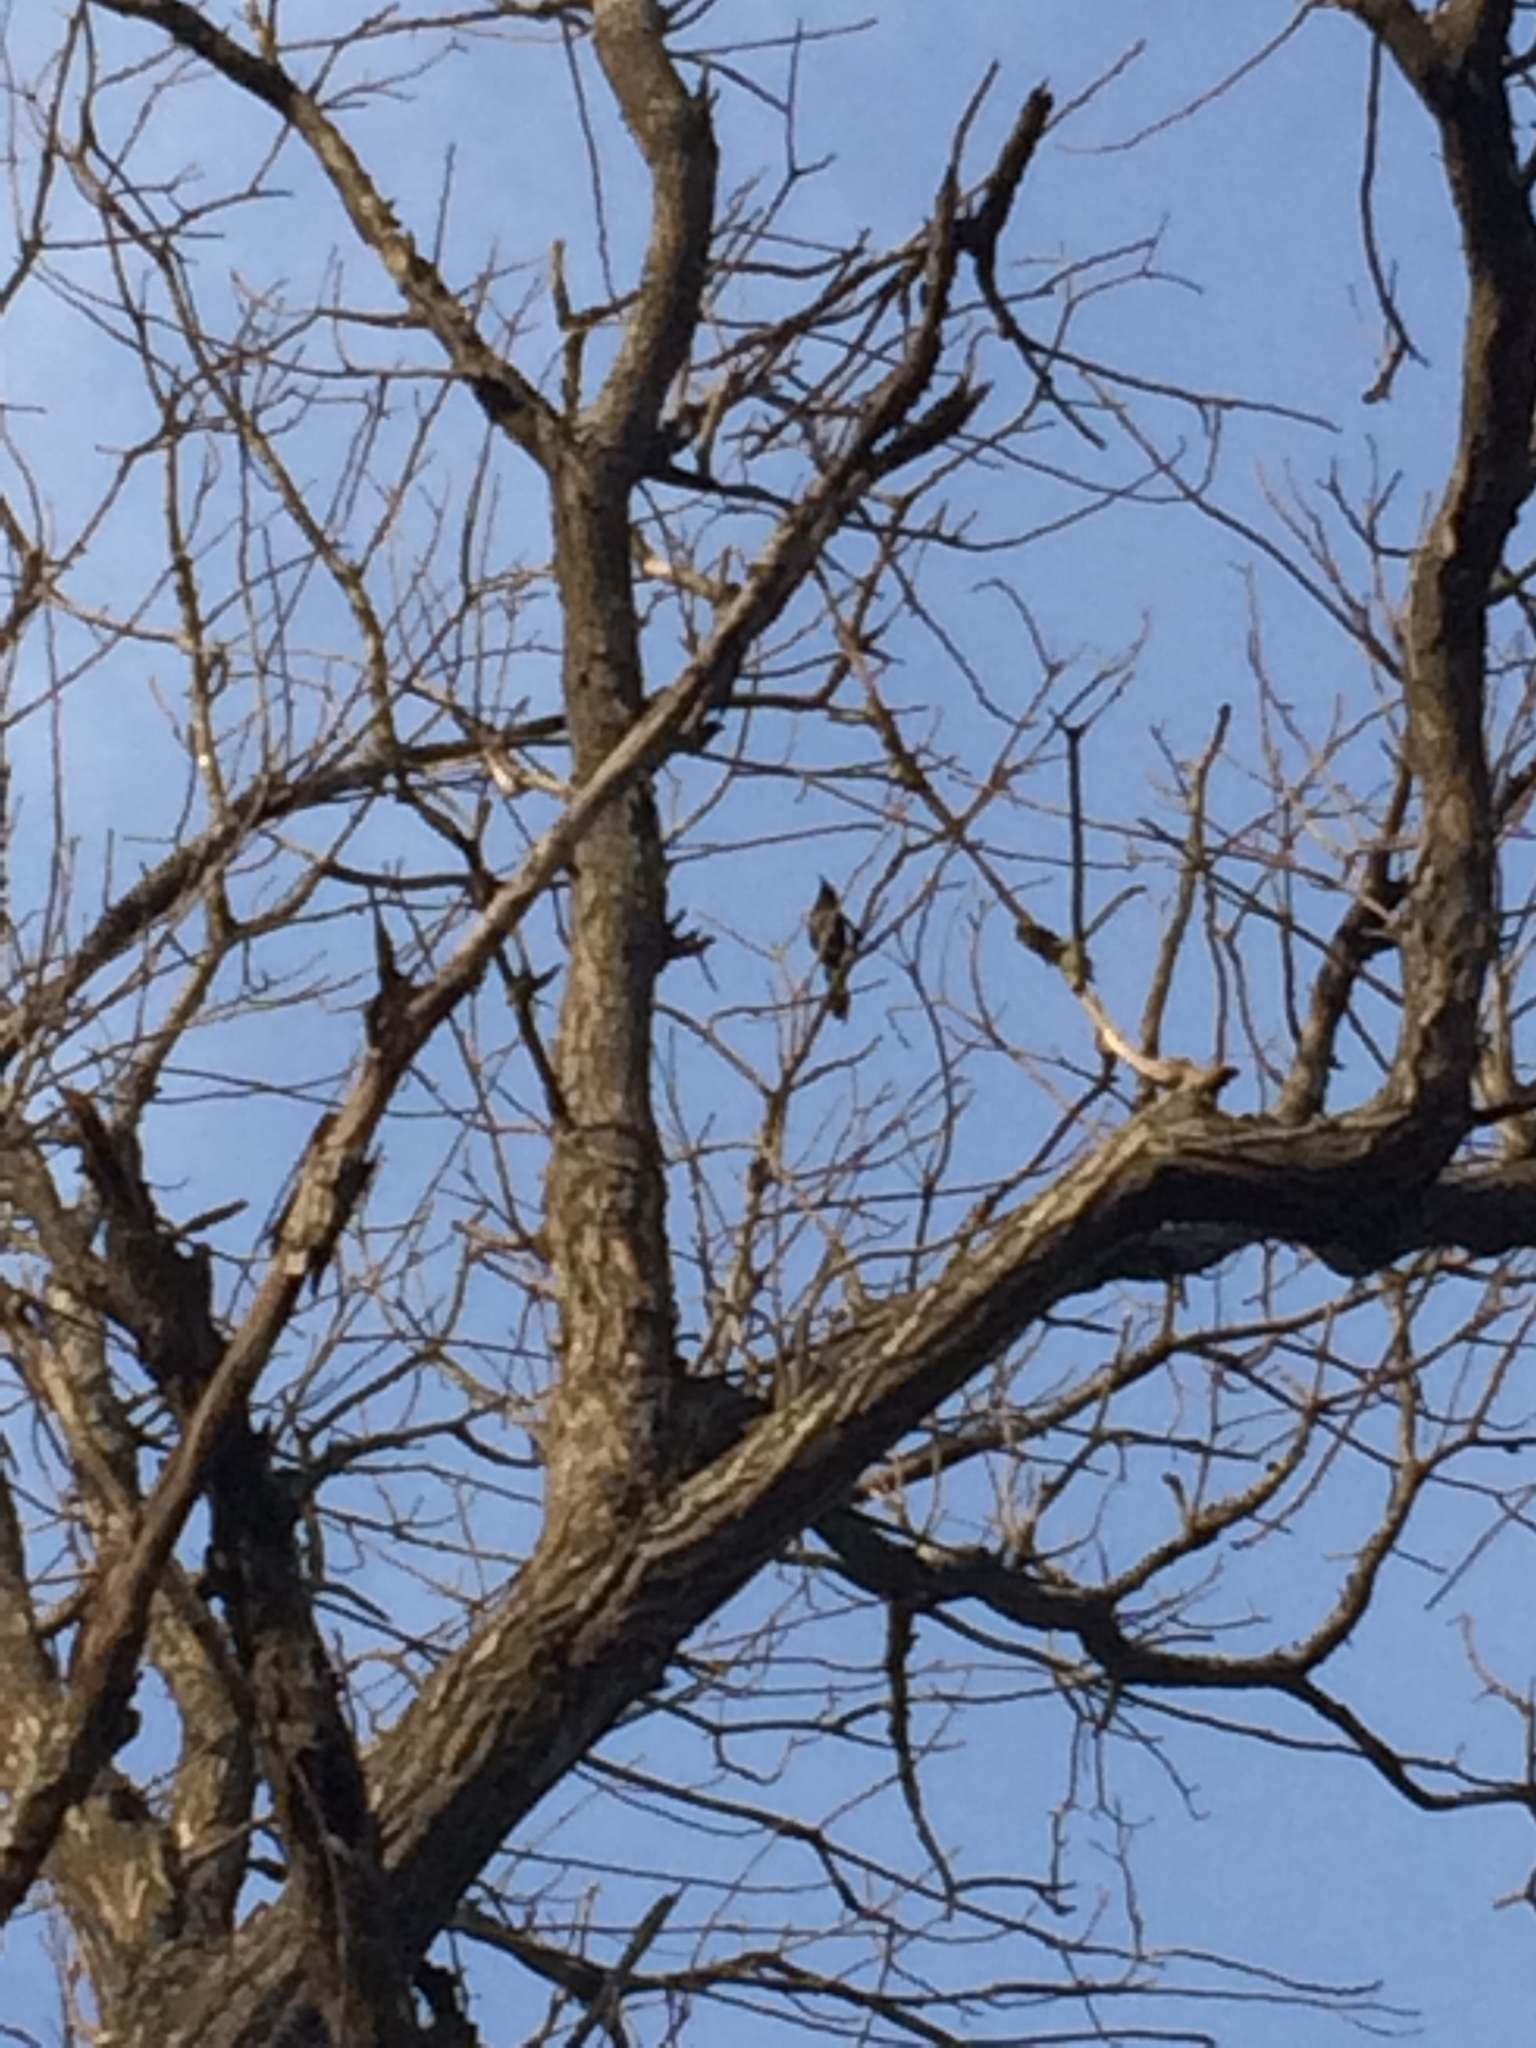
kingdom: Animalia
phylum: Chordata
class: Aves
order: Passeriformes
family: Icteridae
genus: Quiscalus
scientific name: Quiscalus quiscula
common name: Common grackle
